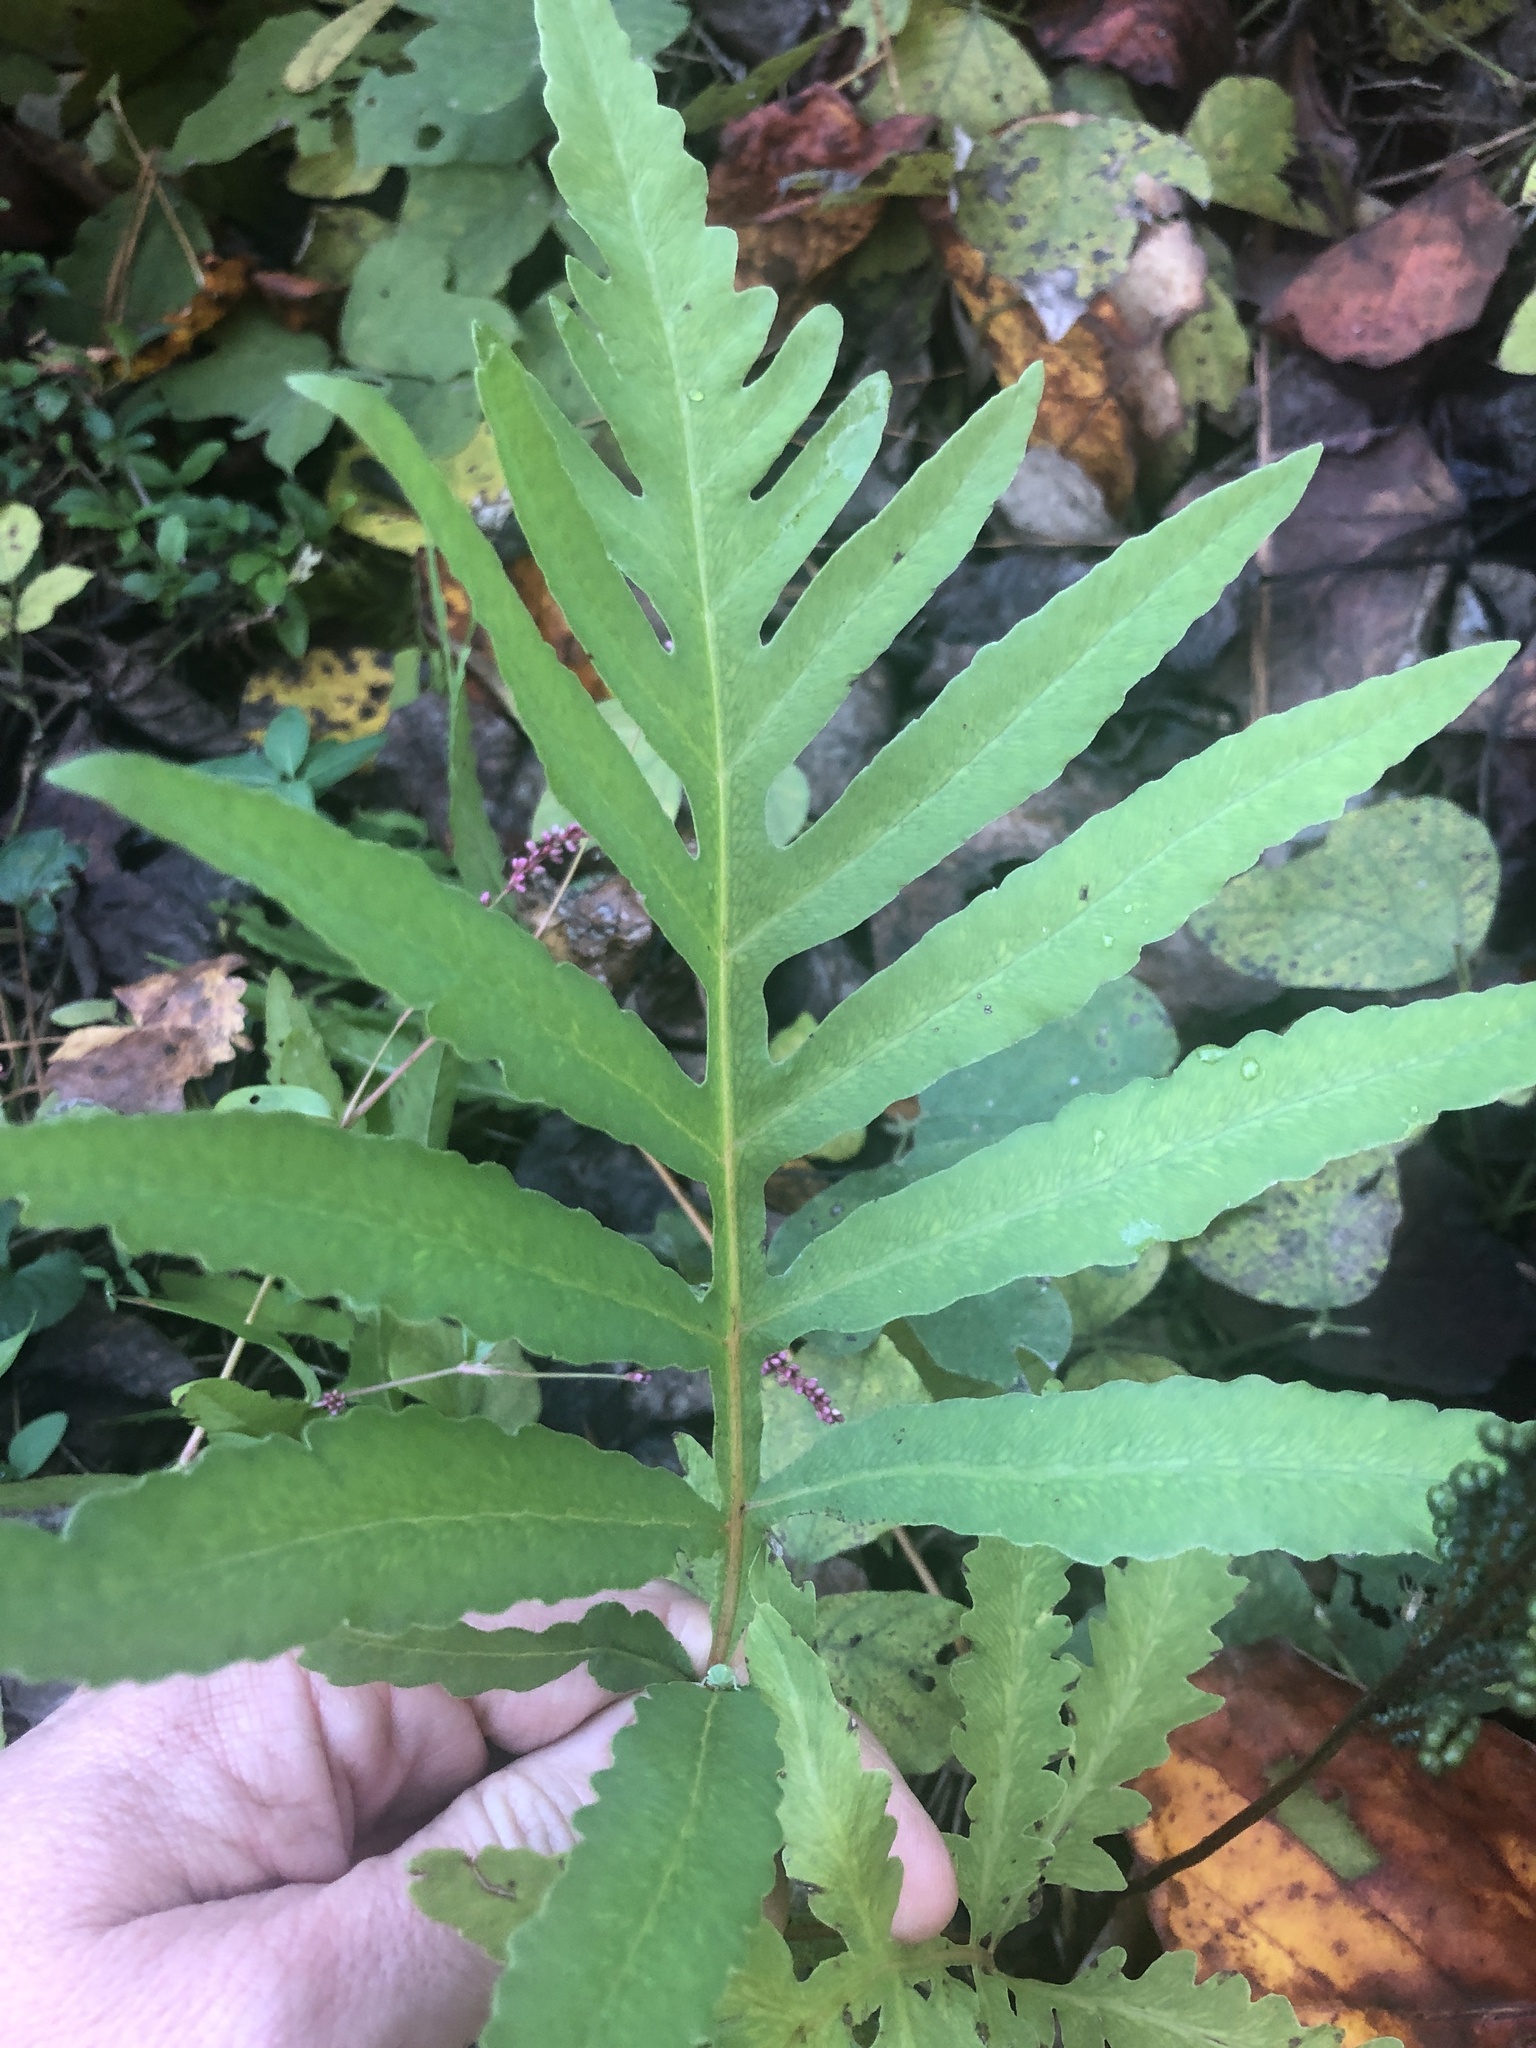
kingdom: Plantae
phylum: Tracheophyta
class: Polypodiopsida
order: Polypodiales
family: Onocleaceae
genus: Onoclea
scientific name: Onoclea sensibilis
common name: Sensitive fern
